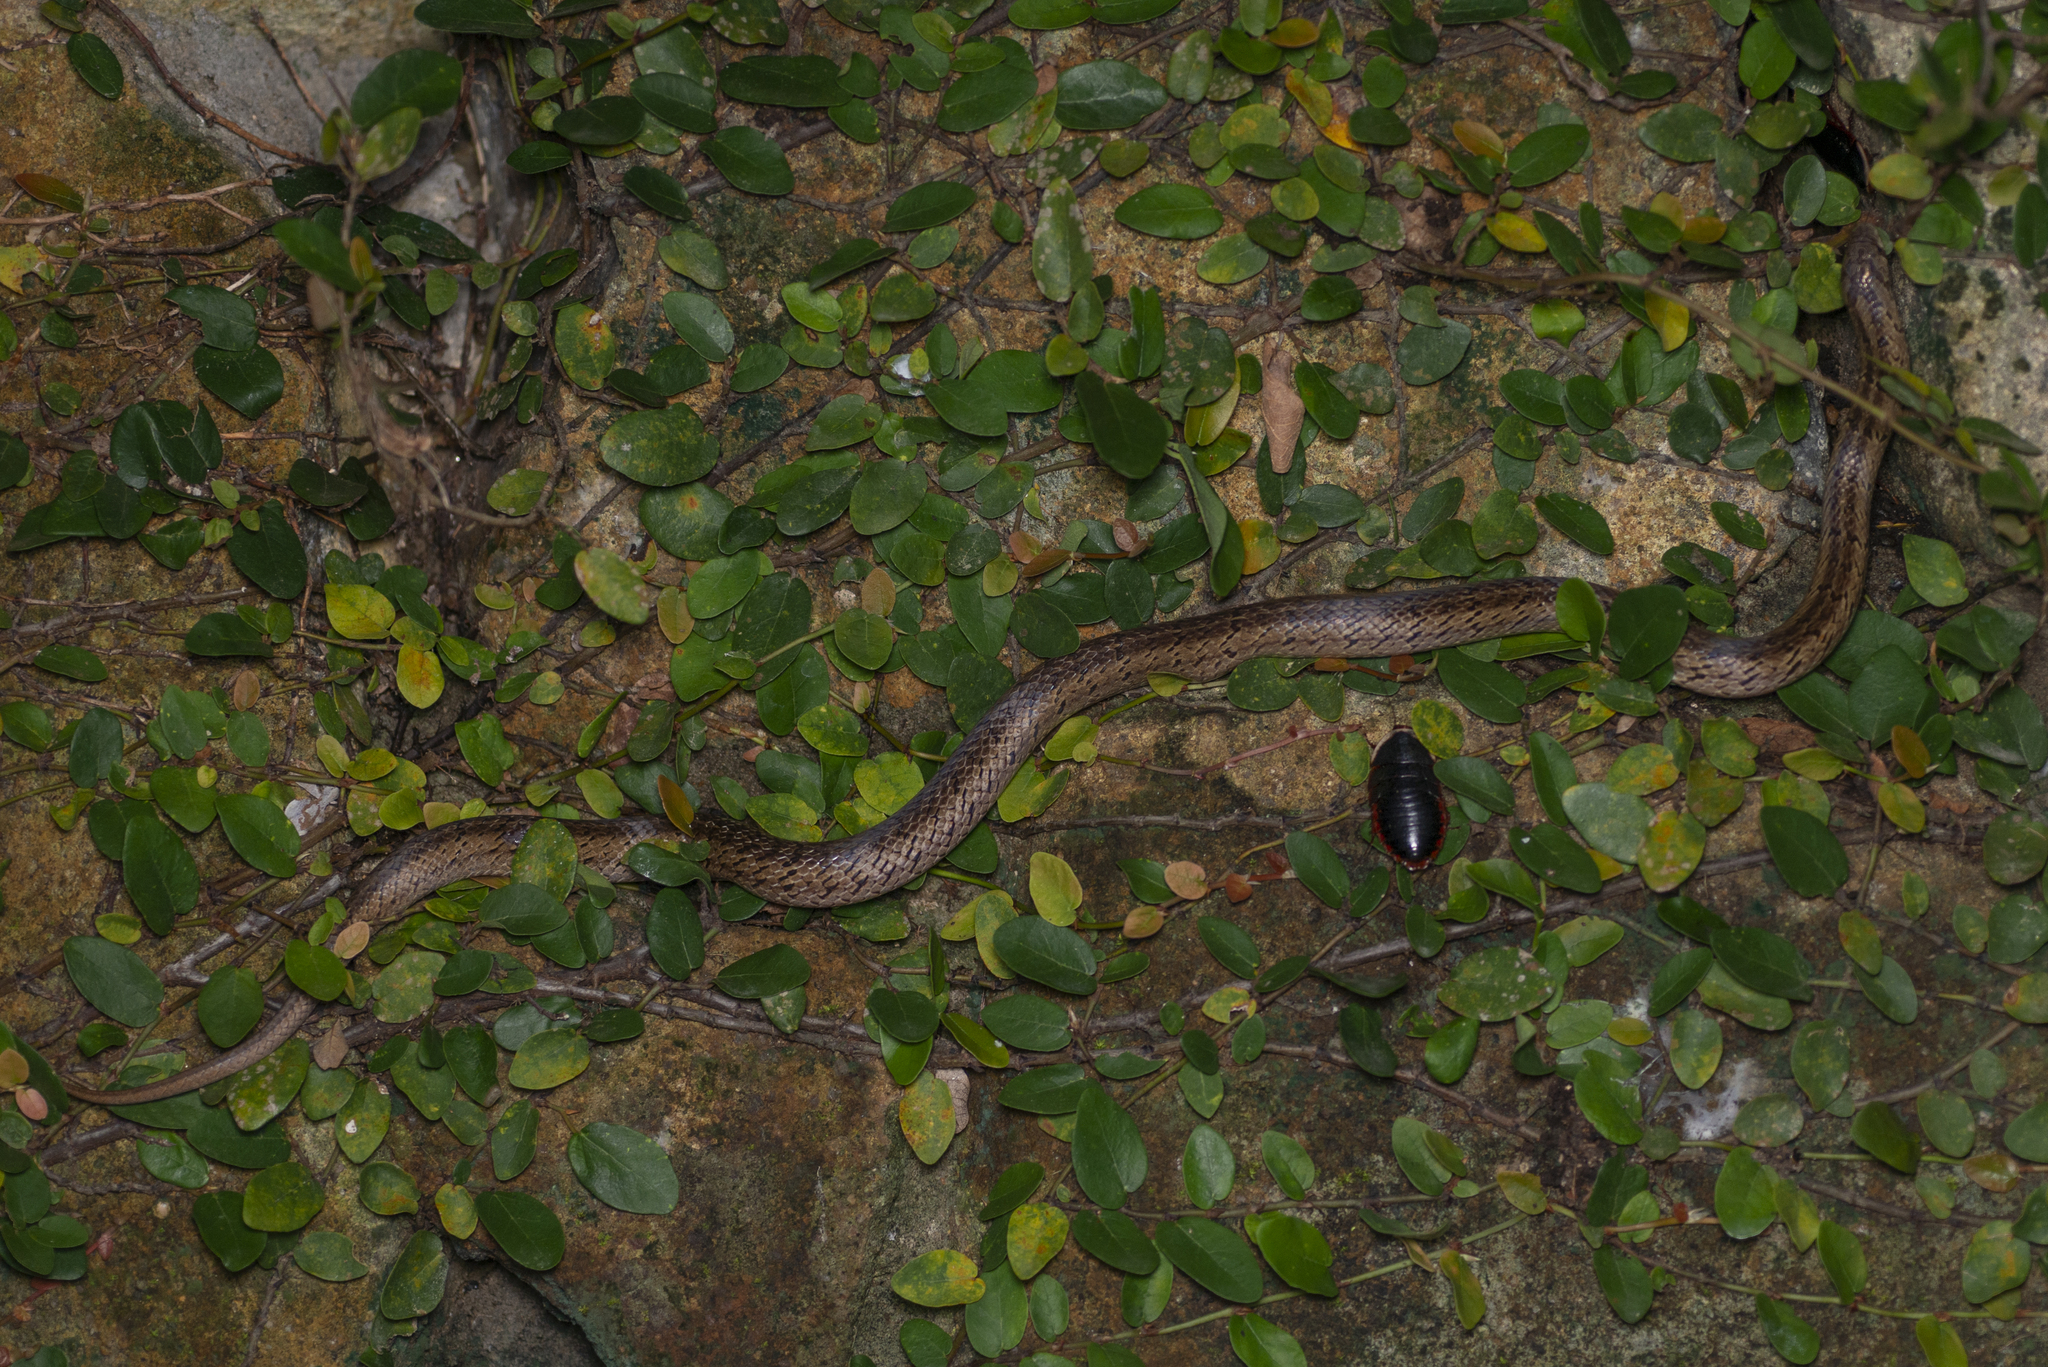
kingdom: Animalia
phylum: Chordata
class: Squamata
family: Colubridae
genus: Oligodon
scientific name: Oligodon formosanus
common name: Formosa kukri snake
